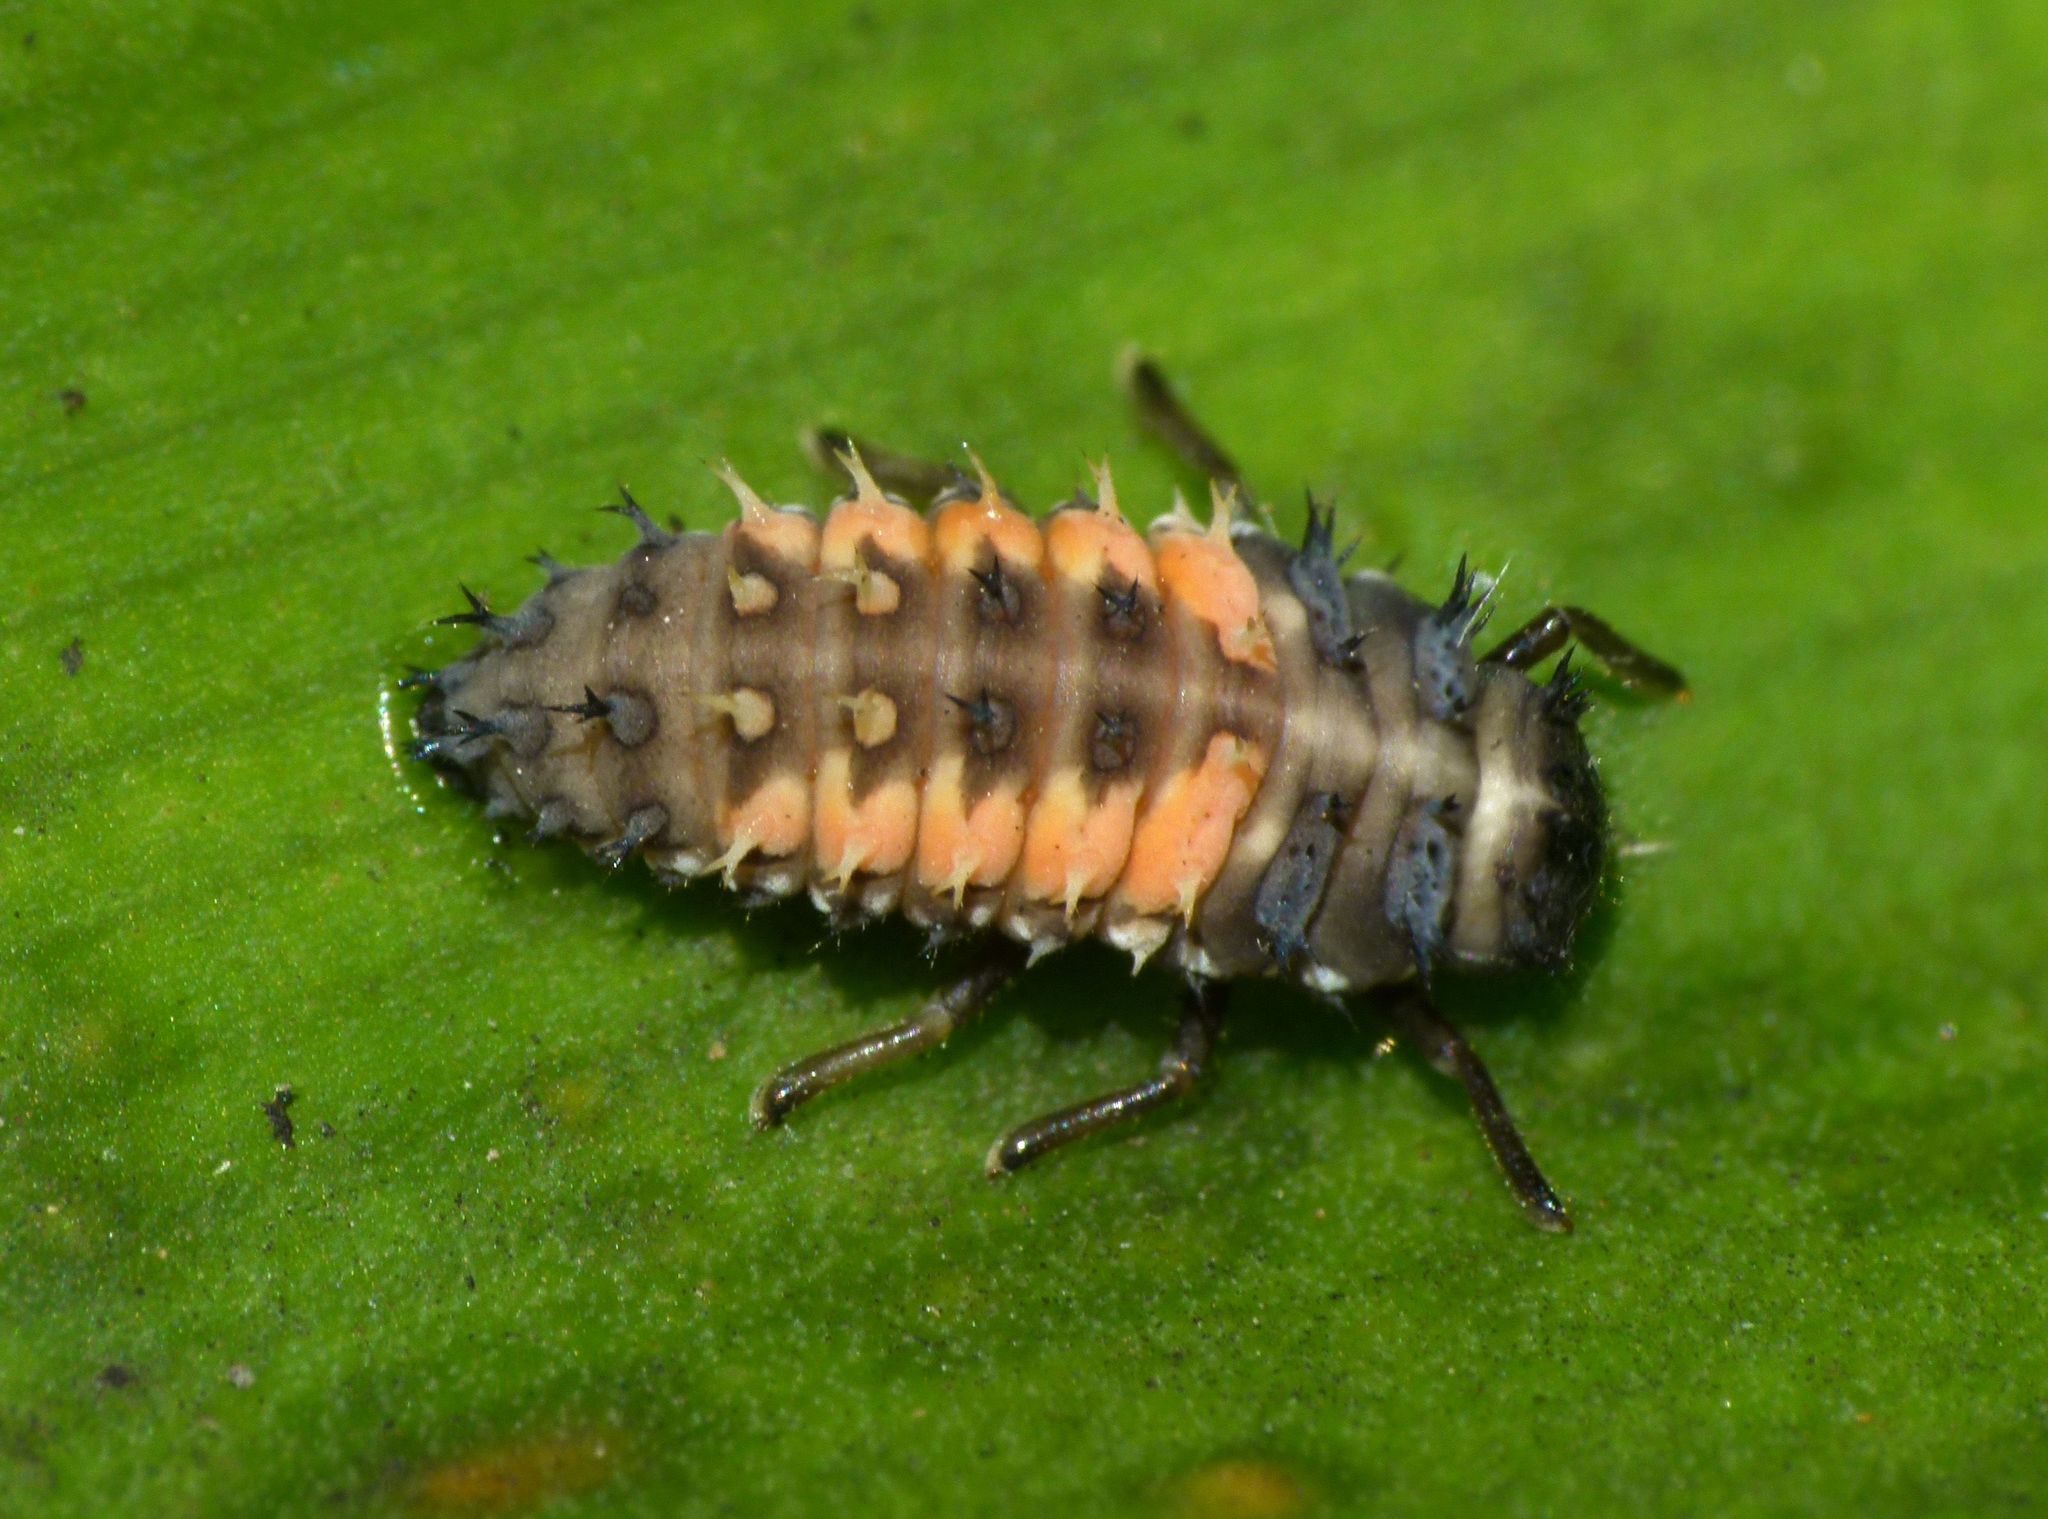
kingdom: Animalia
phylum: Arthropoda
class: Insecta
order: Coleoptera
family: Coccinellidae
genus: Harmonia
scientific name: Harmonia axyridis
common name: Harlequin ladybird
